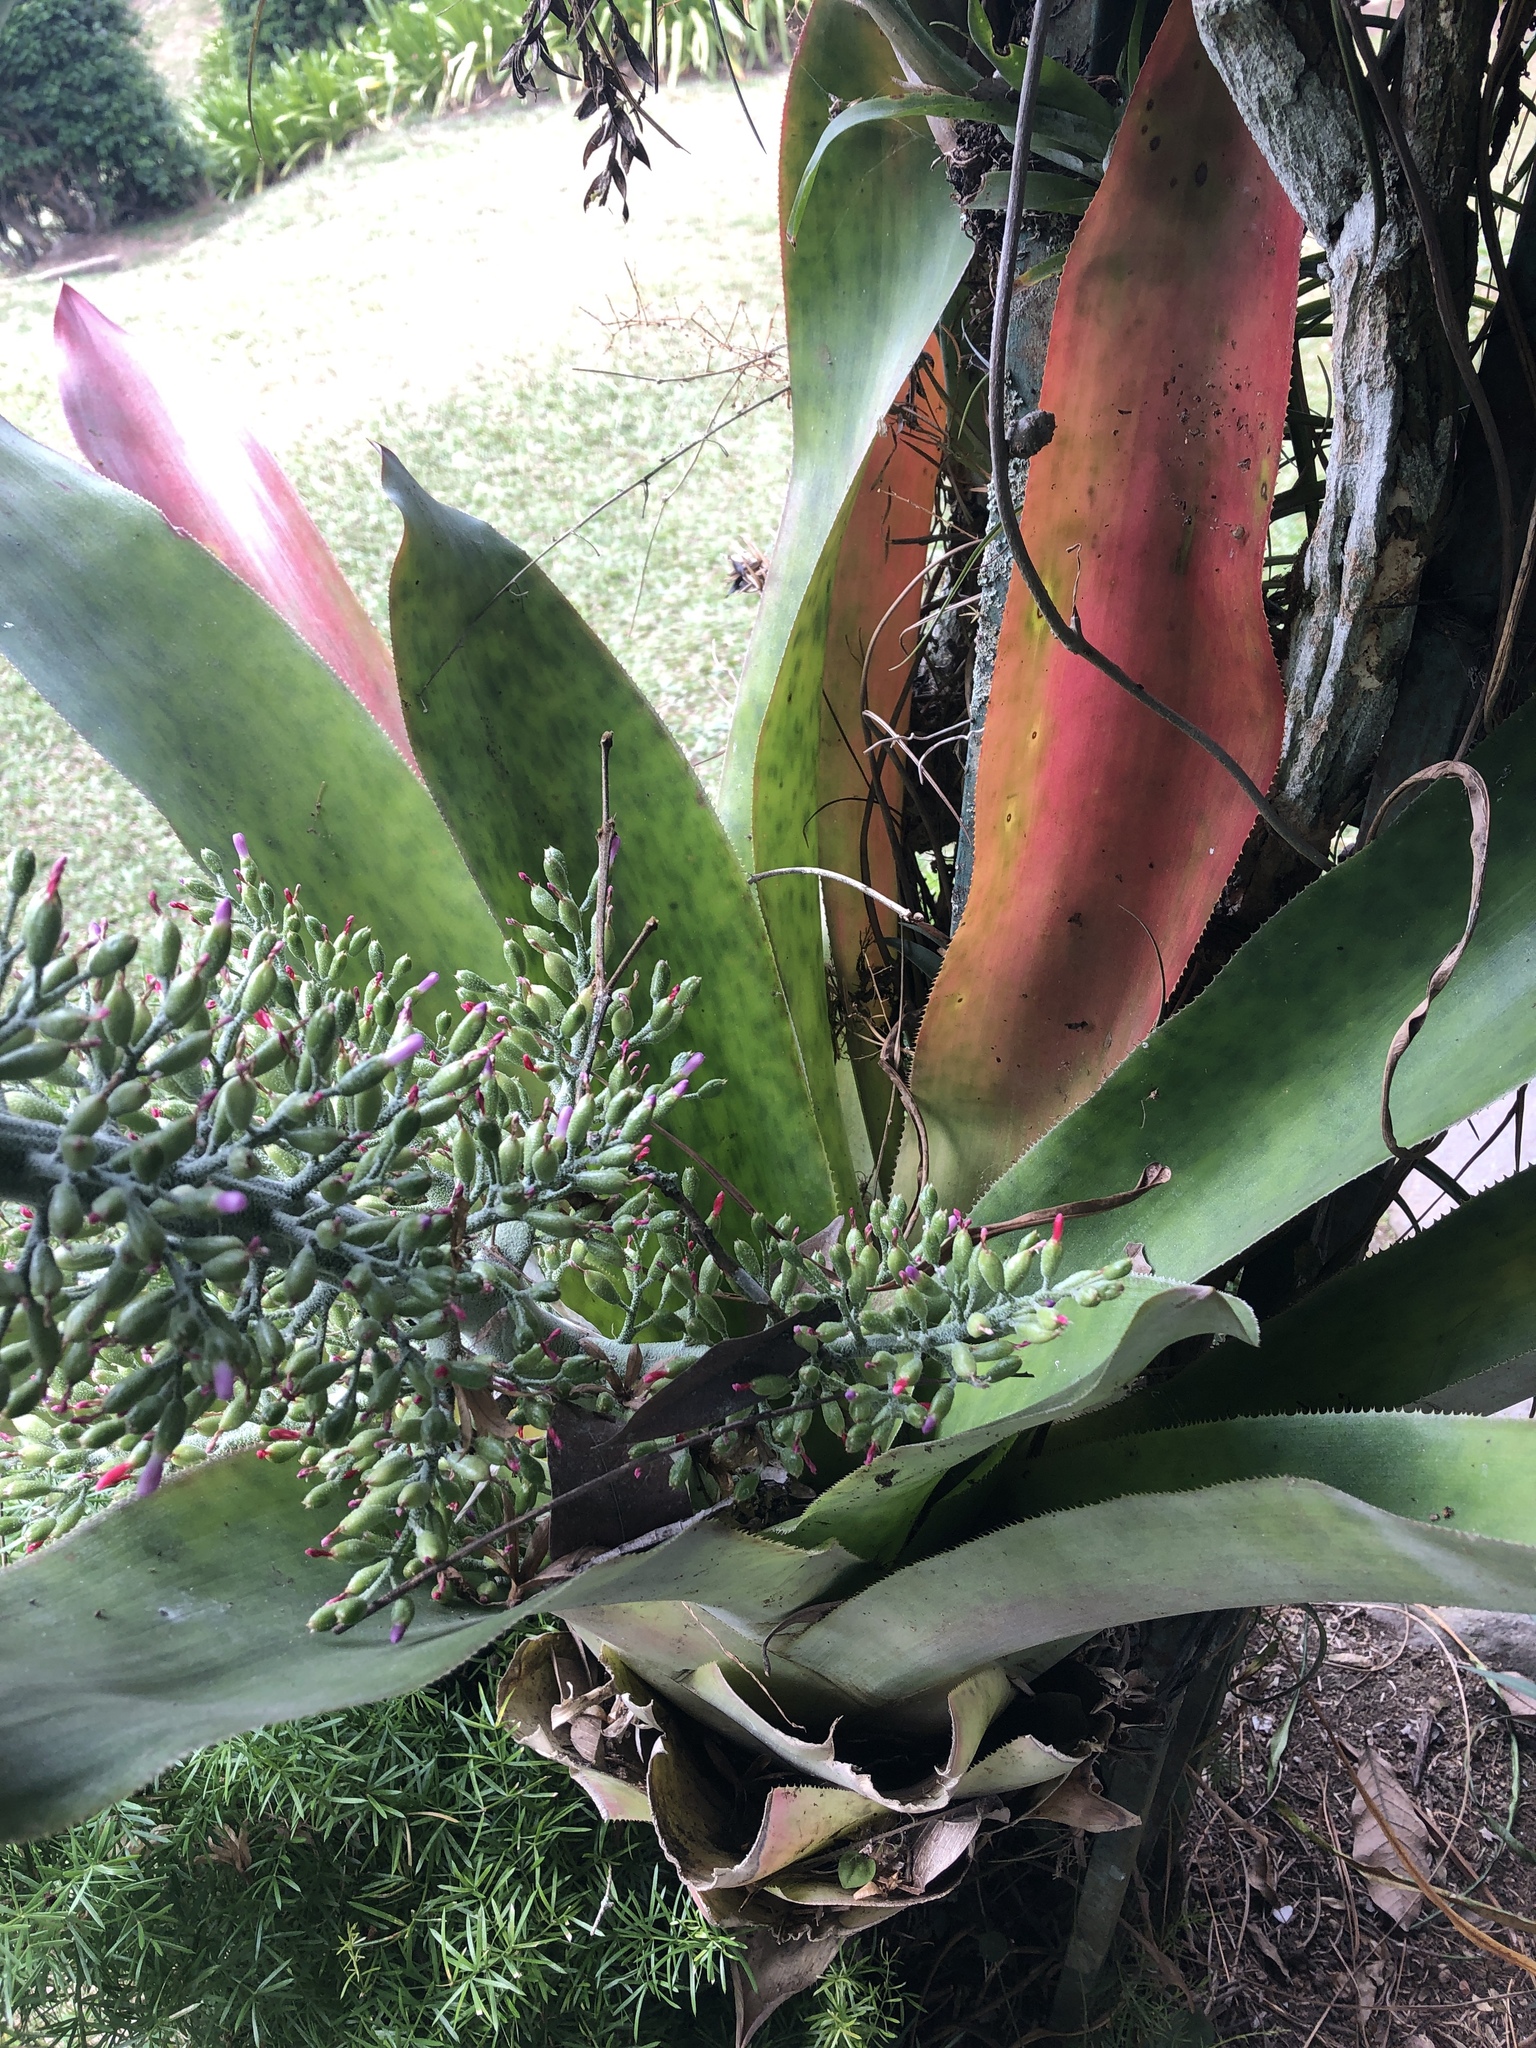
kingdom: Plantae
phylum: Tracheophyta
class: Liliopsida
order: Poales
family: Bromeliaceae
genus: Aechmea
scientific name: Aechmea mexicana
